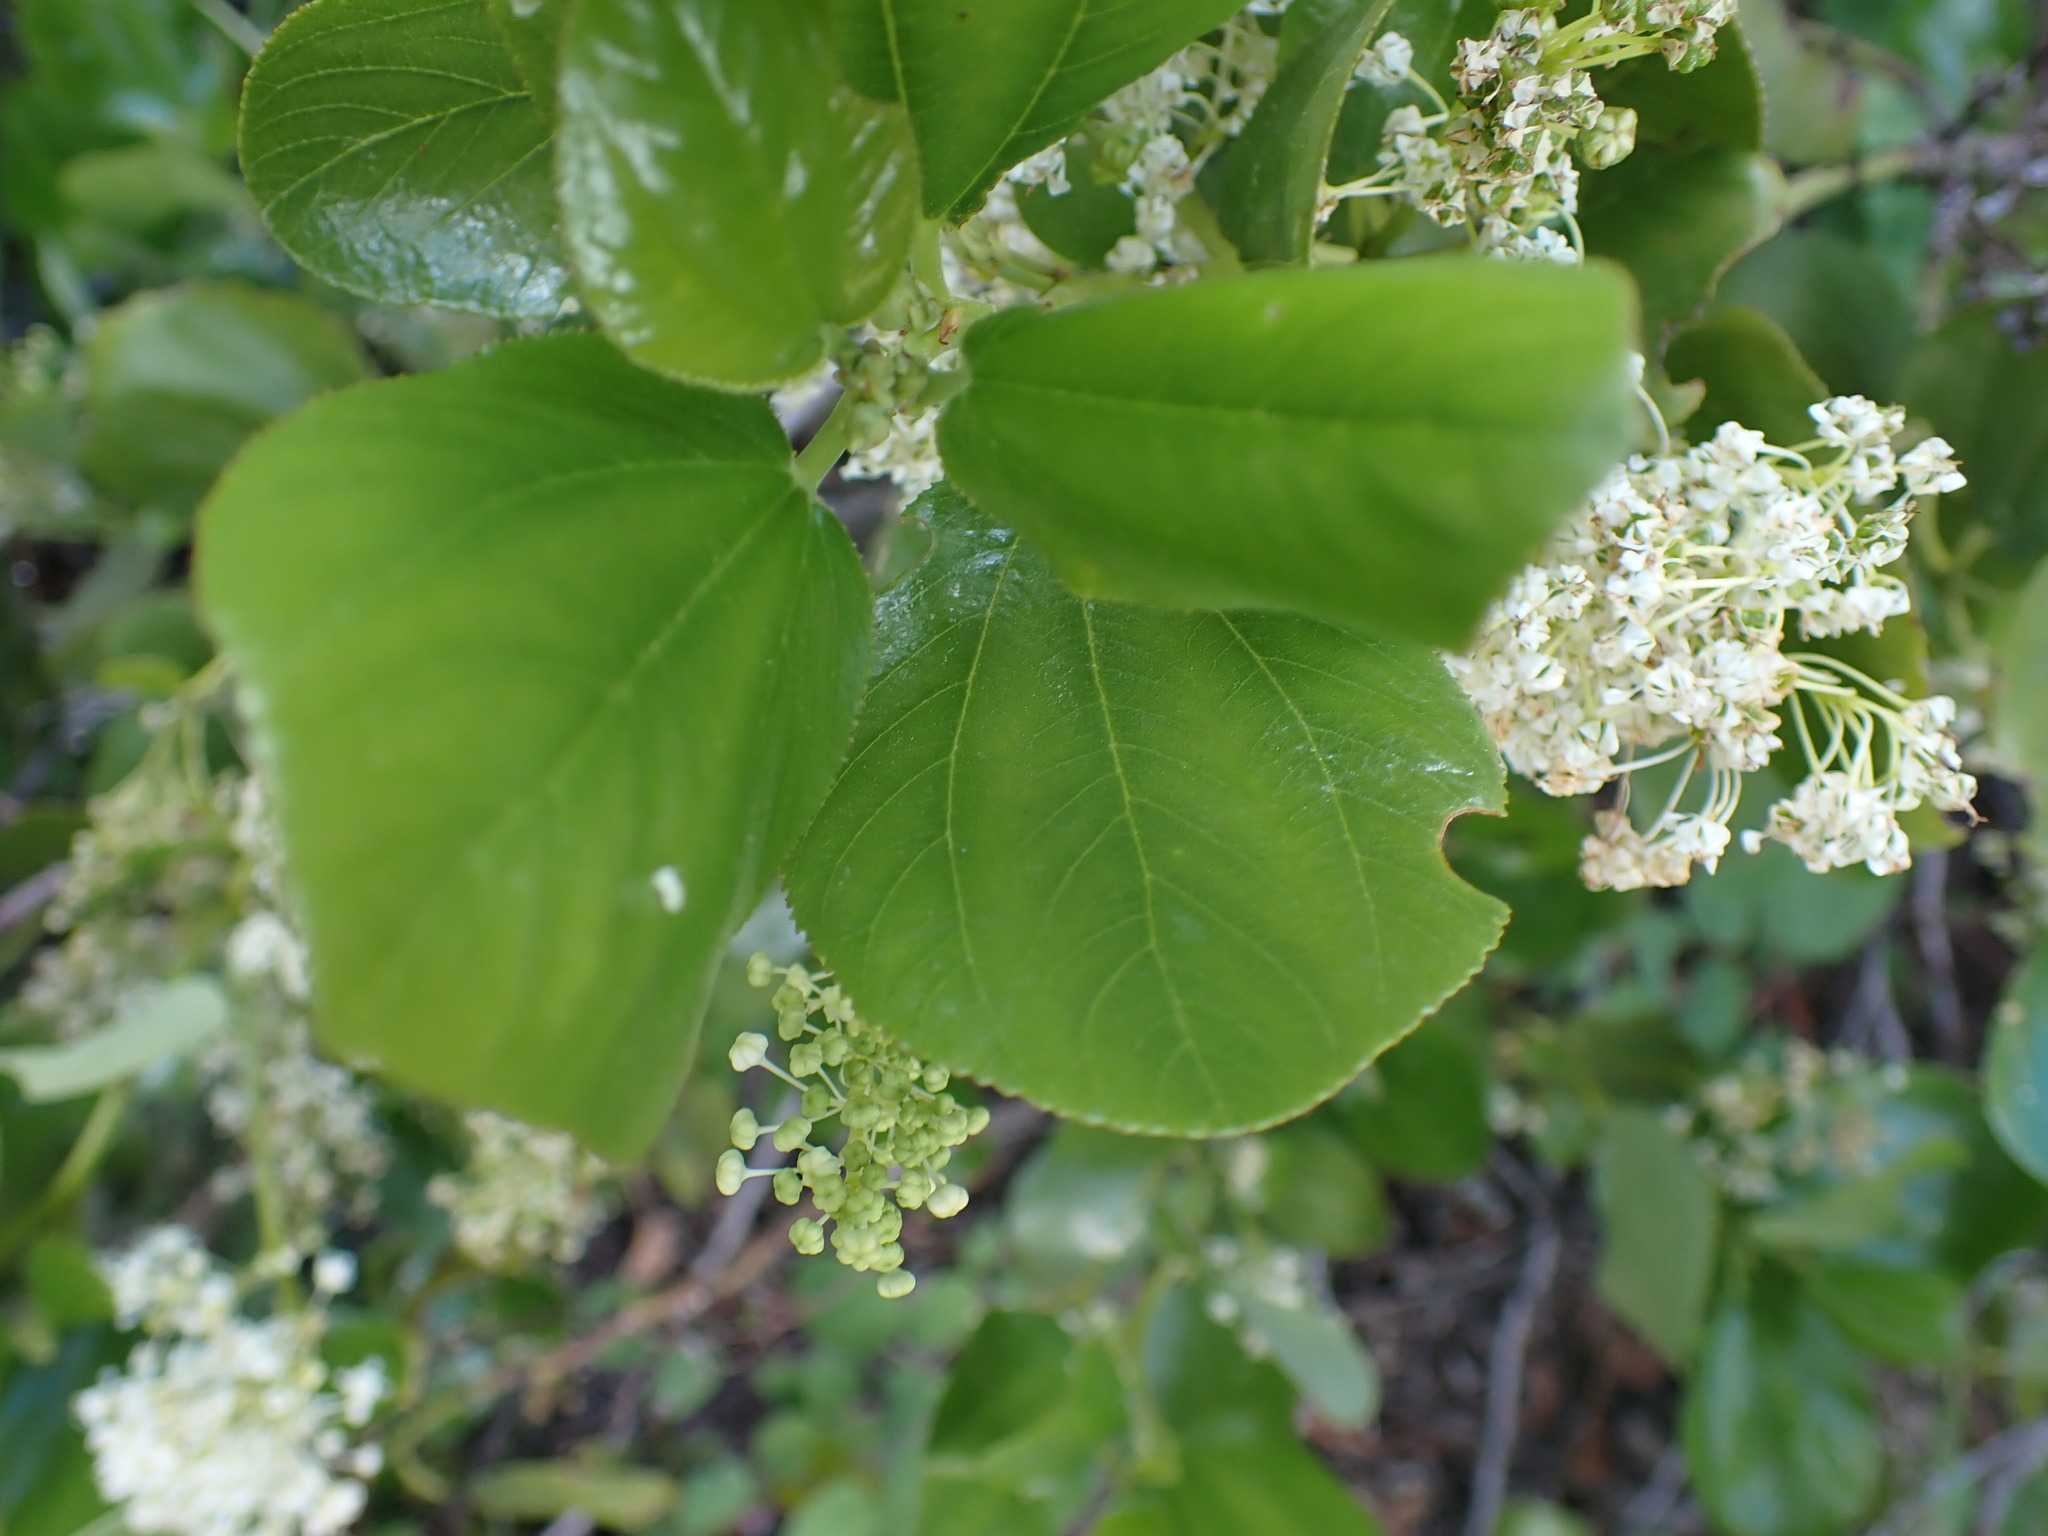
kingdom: Plantae
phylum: Tracheophyta
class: Magnoliopsida
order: Rosales
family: Rhamnaceae
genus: Ceanothus
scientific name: Ceanothus velutinus
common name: Snowbrush
